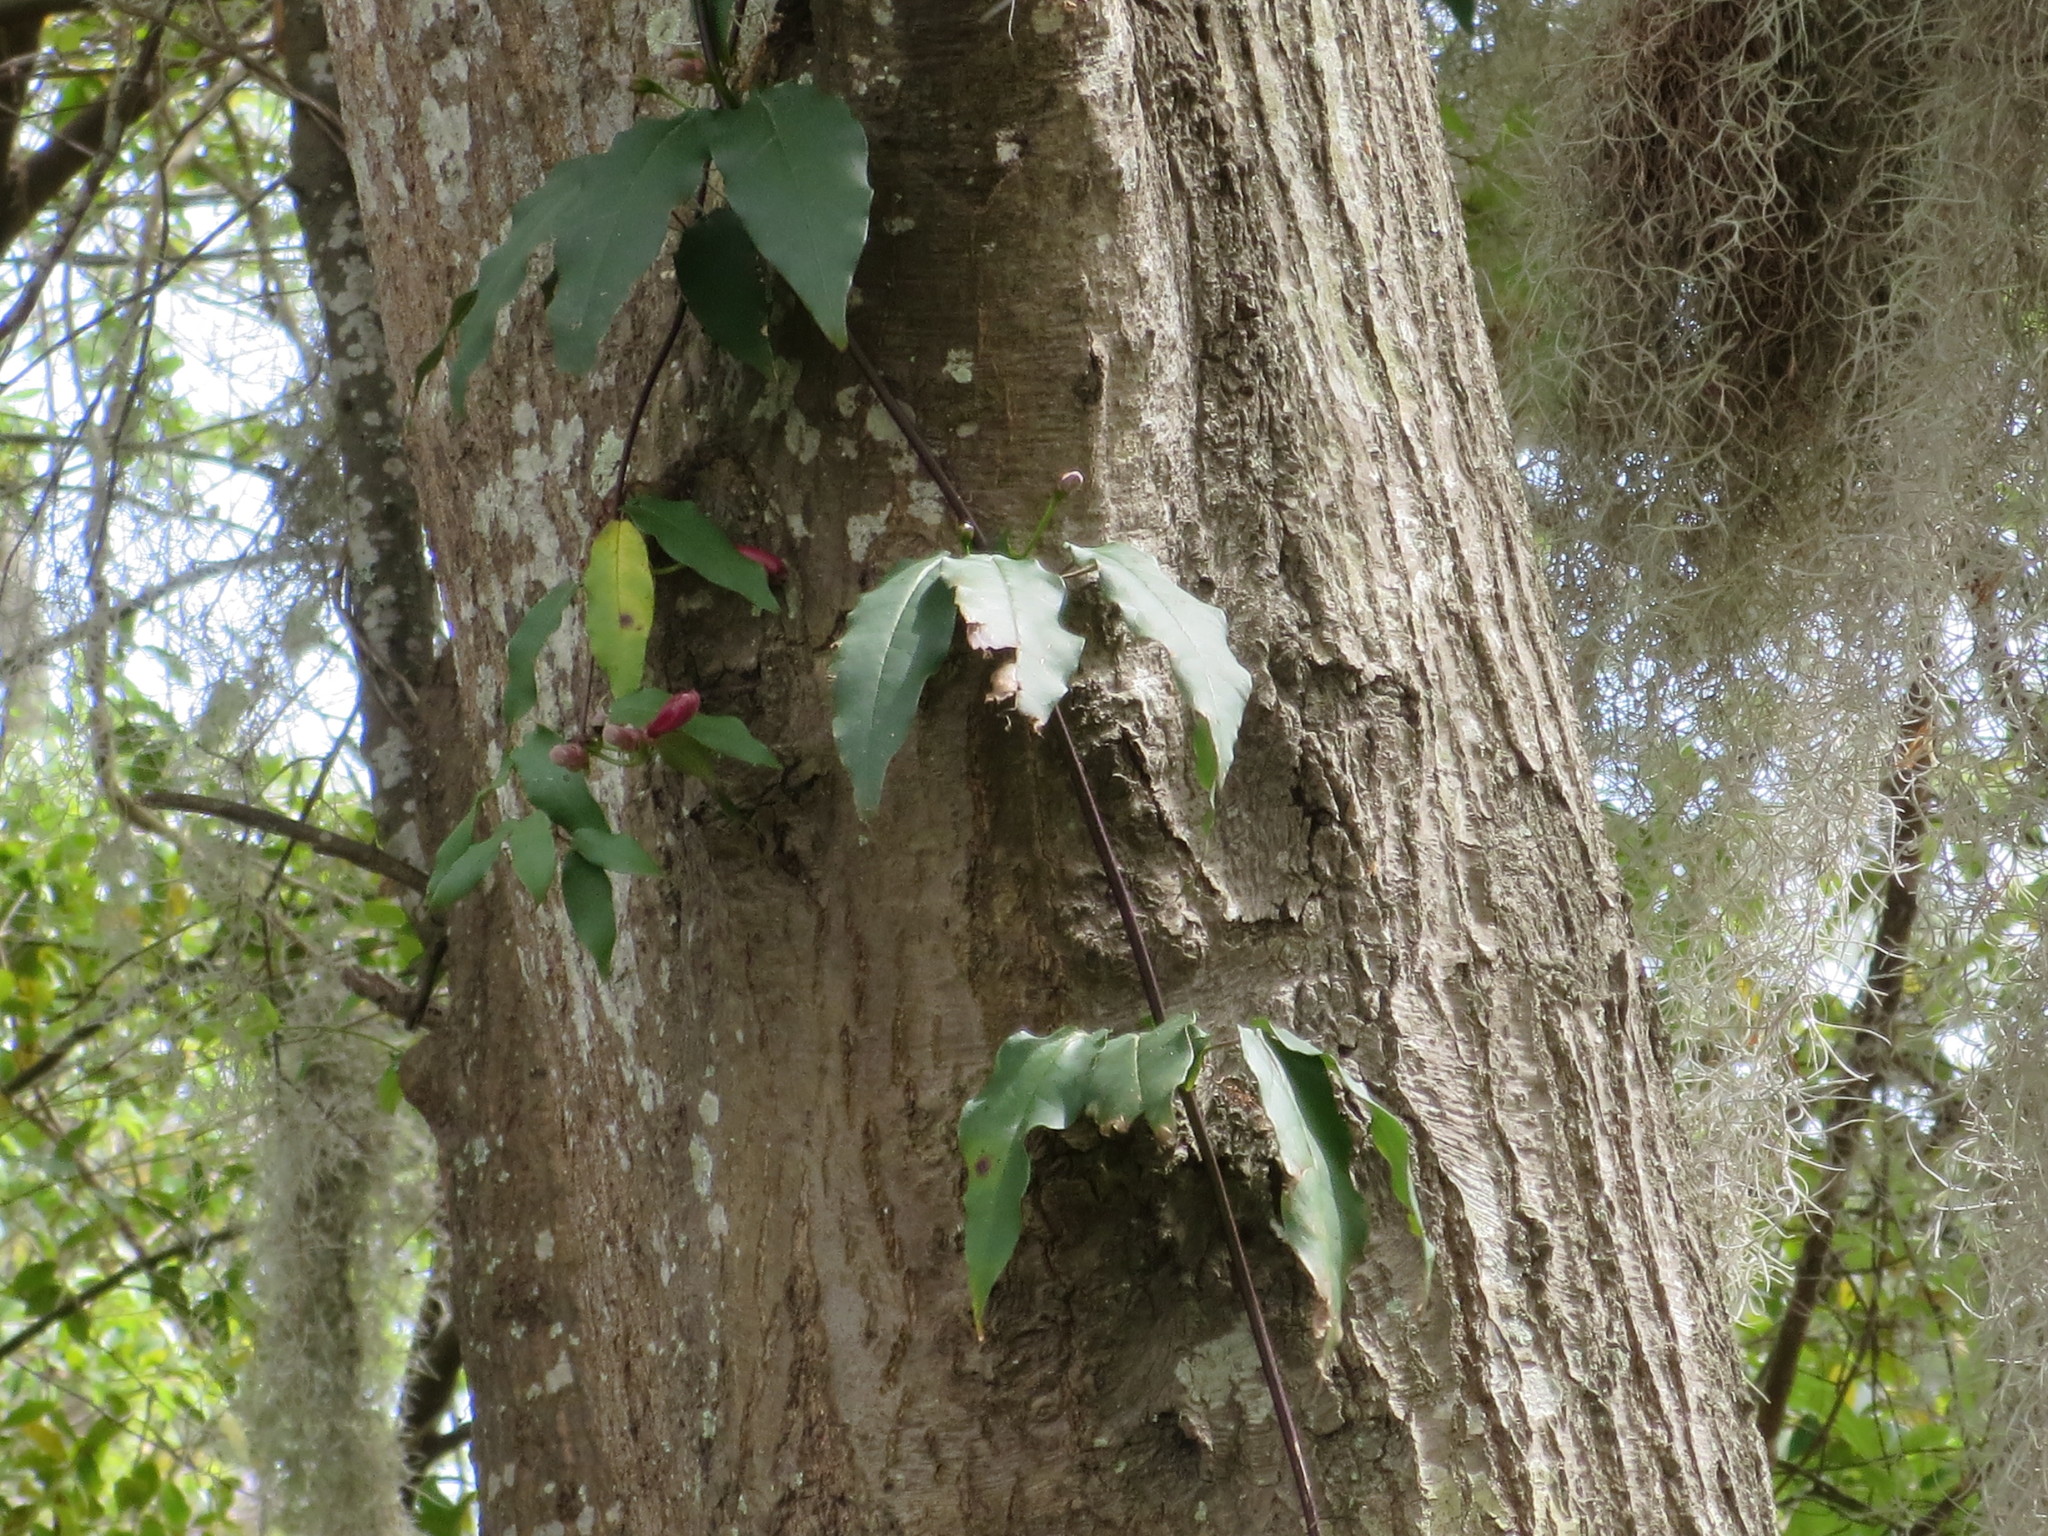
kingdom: Plantae
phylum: Tracheophyta
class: Magnoliopsida
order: Lamiales
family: Bignoniaceae
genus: Bignonia
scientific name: Bignonia capreolata
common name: Crossvine
